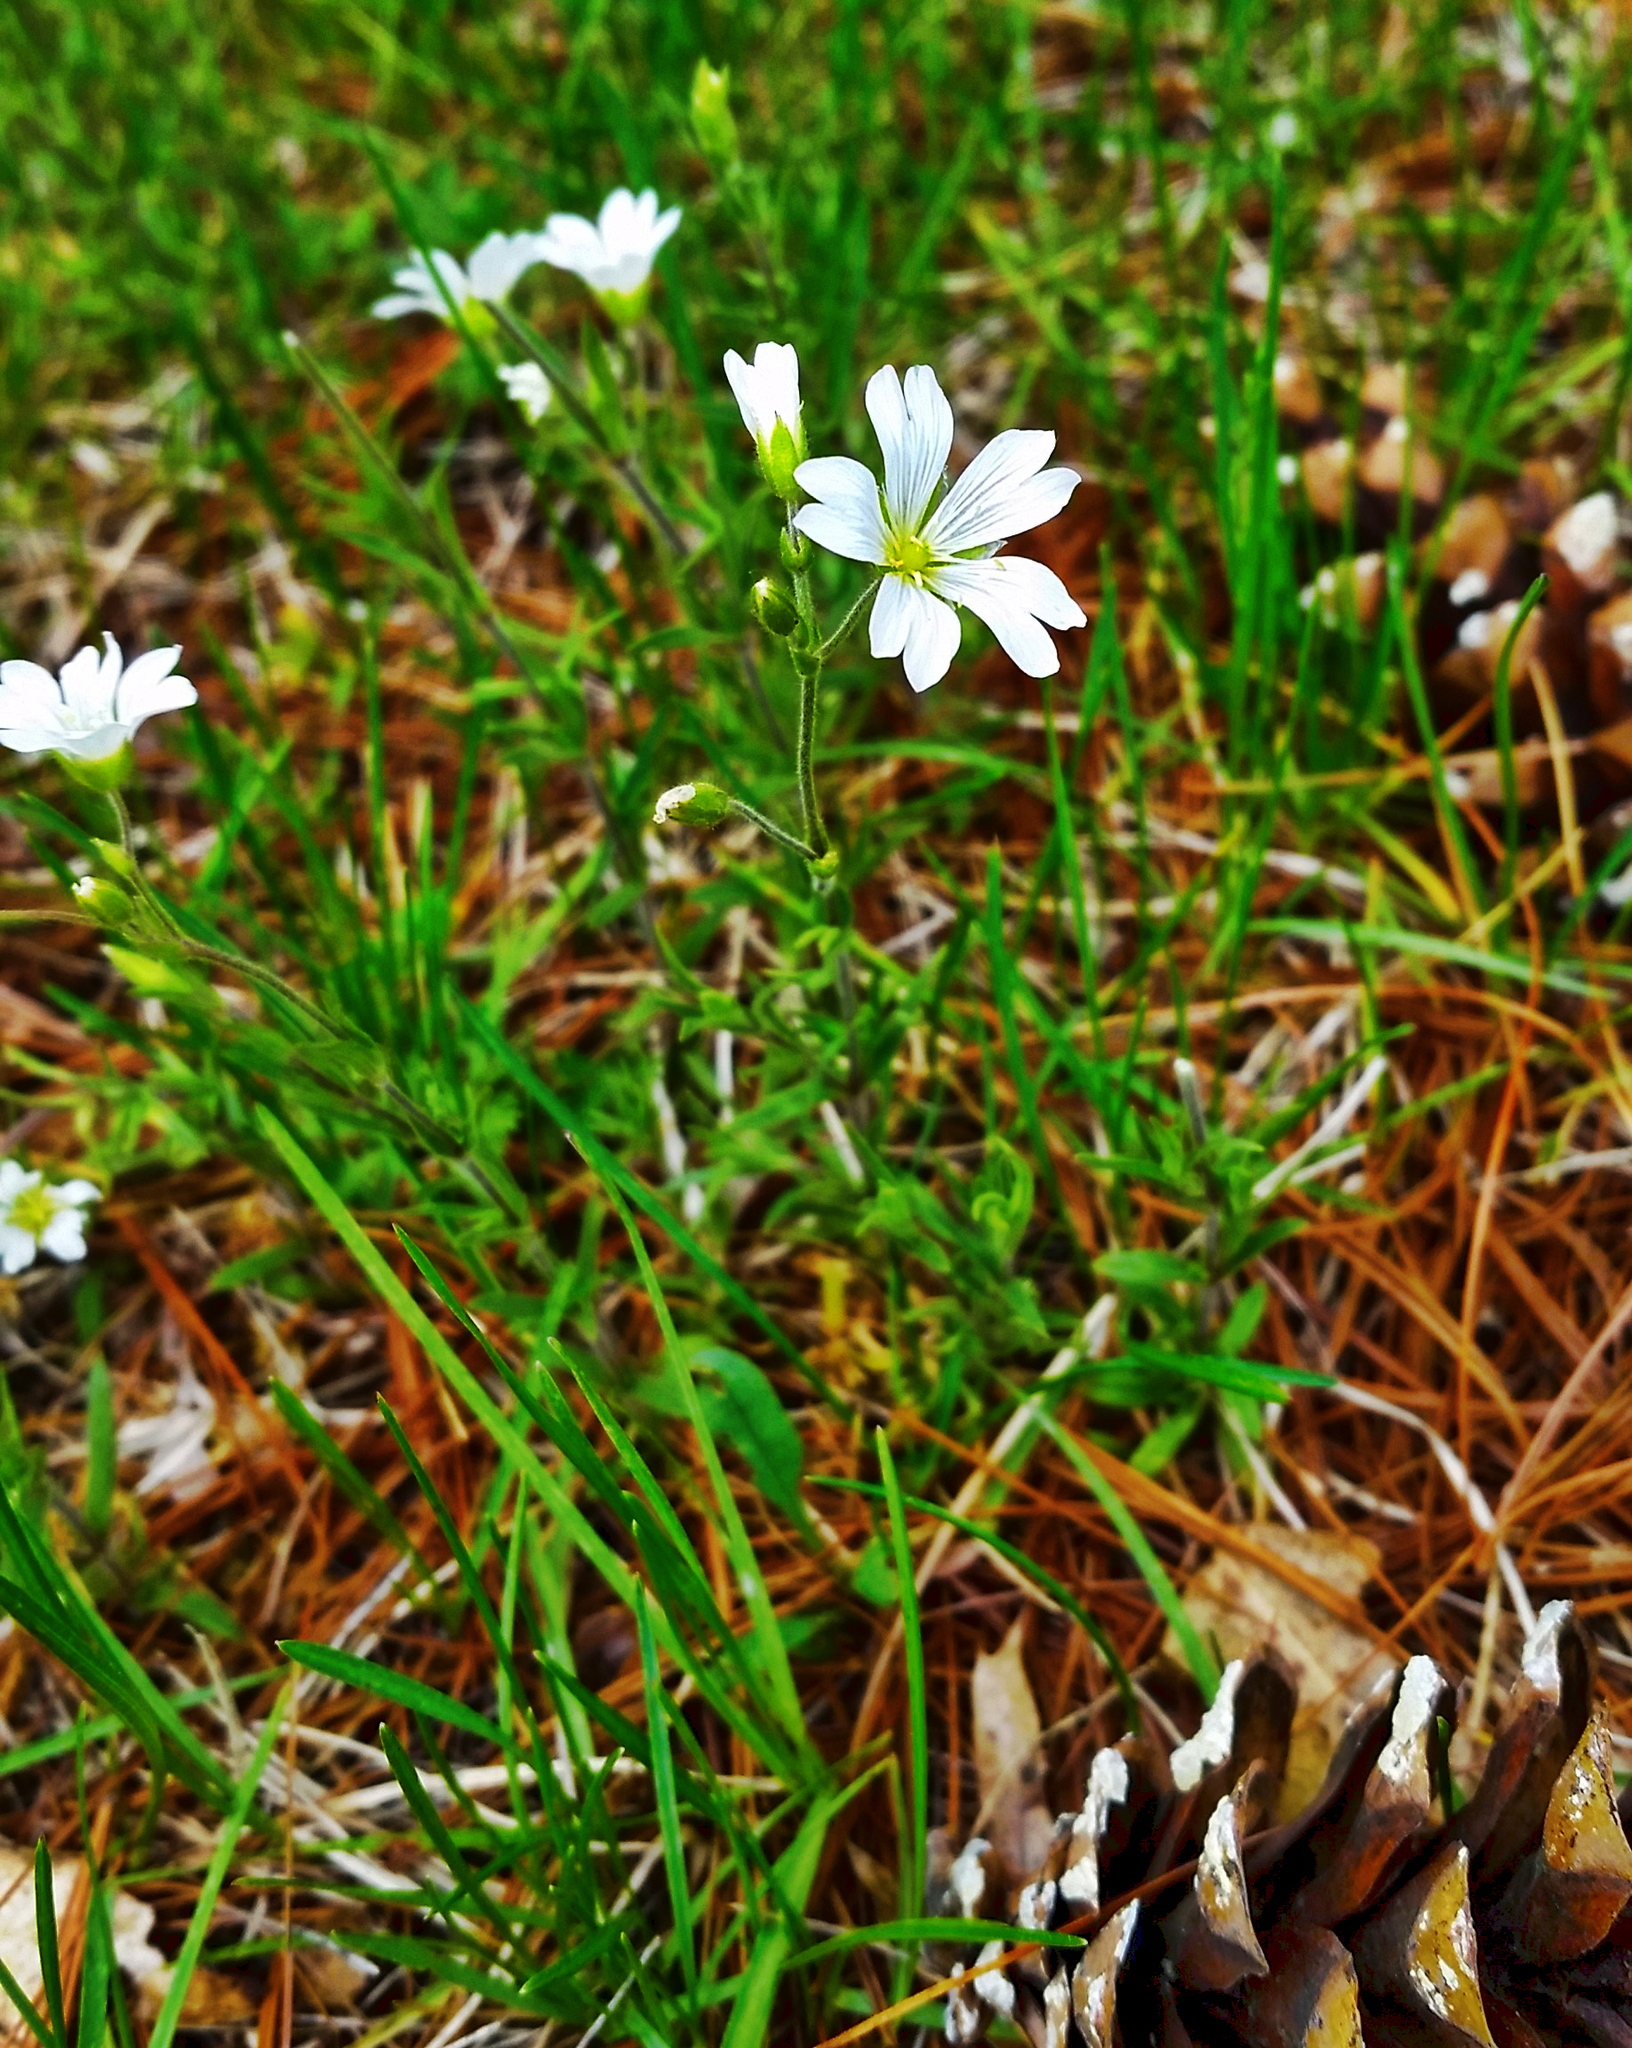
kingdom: Plantae
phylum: Tracheophyta
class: Magnoliopsida
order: Caryophyllales
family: Caryophyllaceae
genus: Cerastium
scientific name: Cerastium arvense
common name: Field mouse-ear
